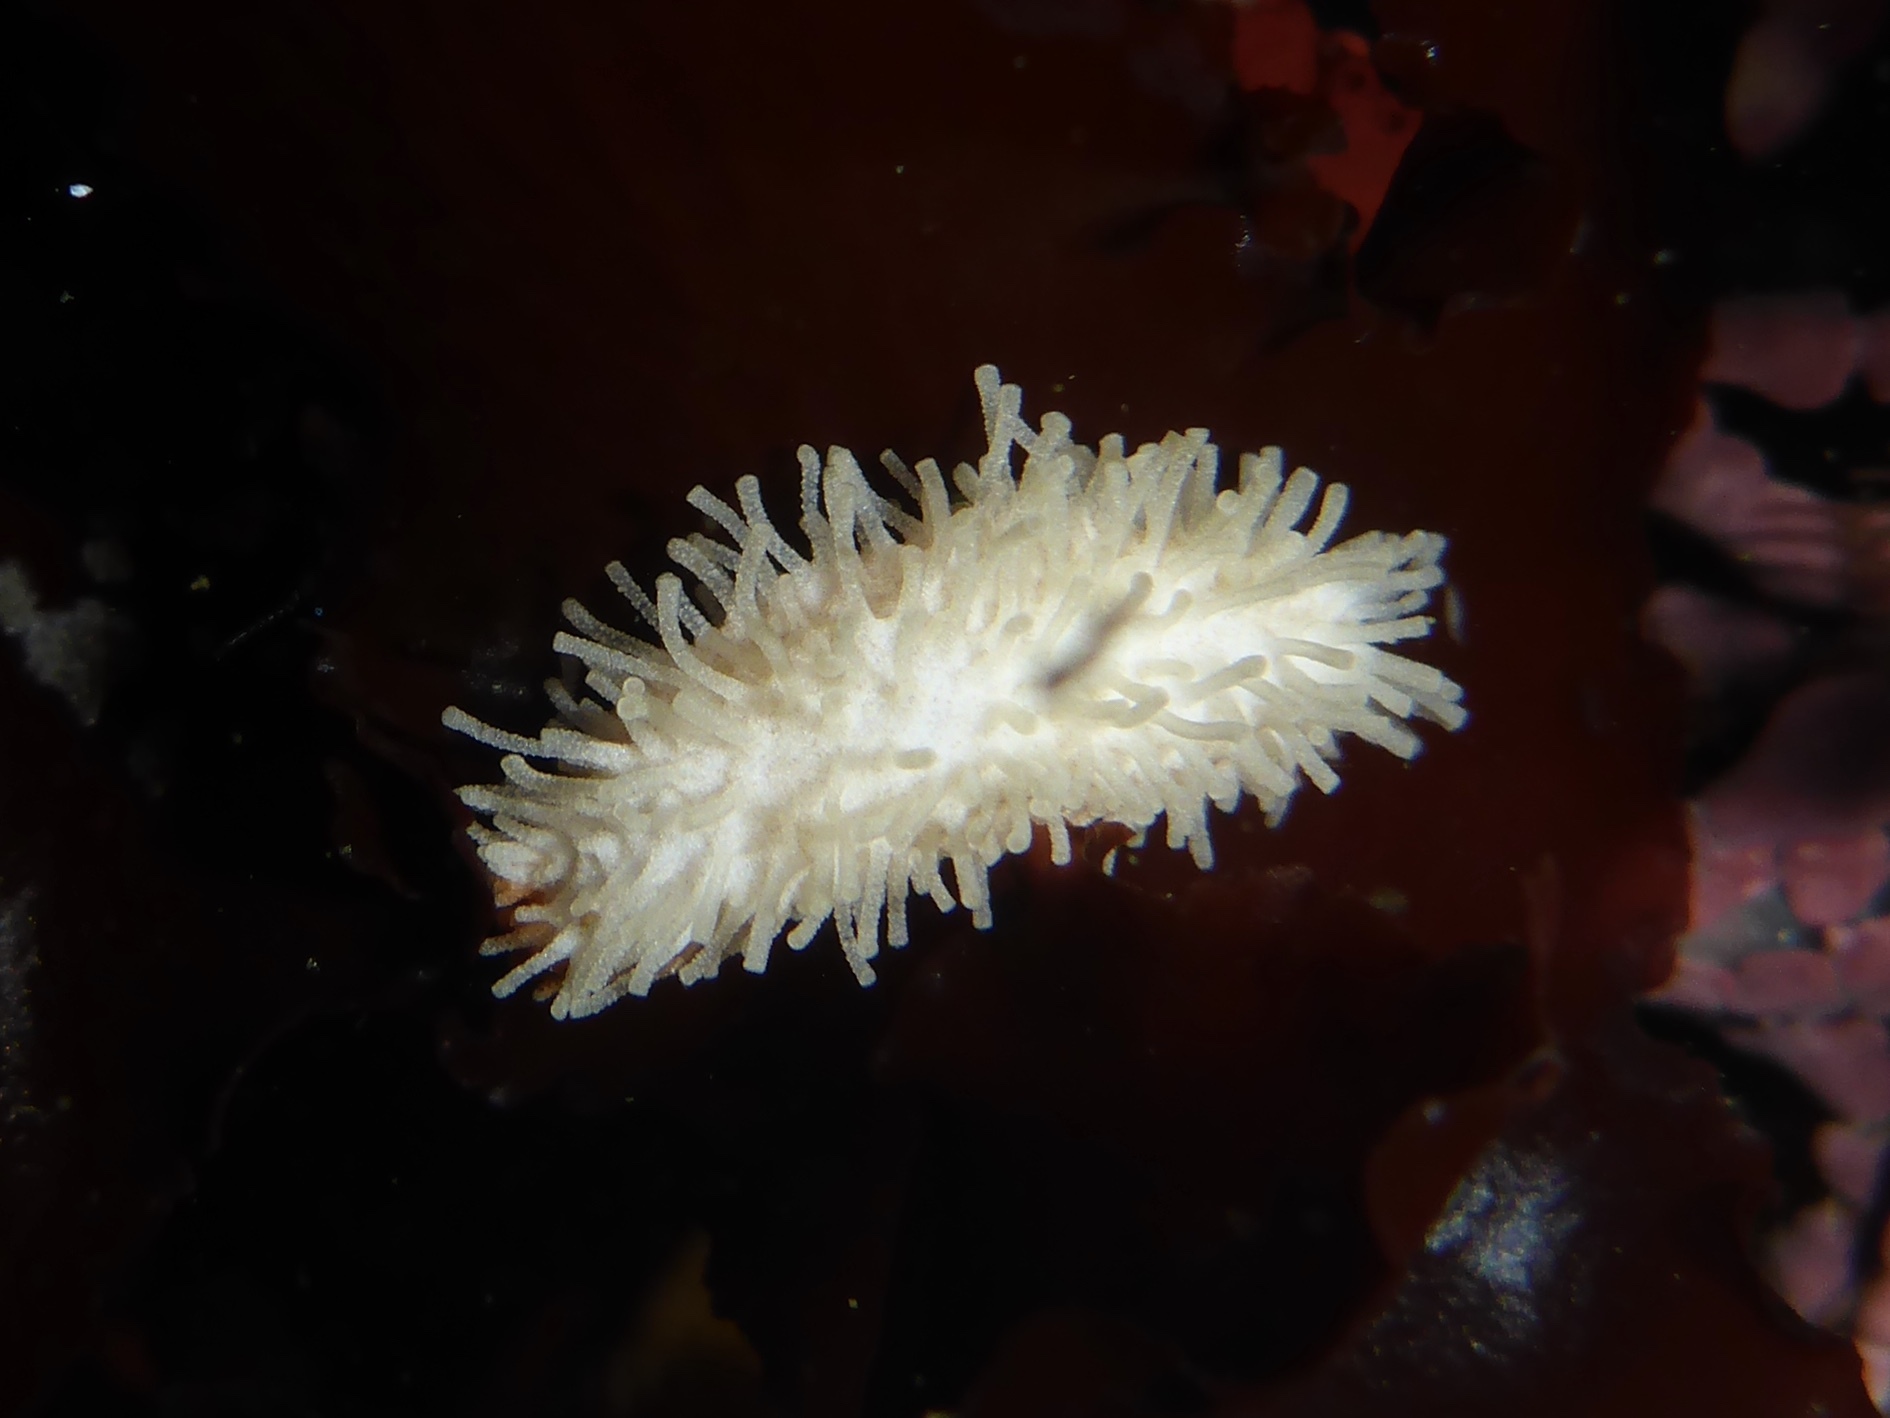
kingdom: Animalia
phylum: Echinodermata
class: Holothuroidea
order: Dendrochirotida
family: Sclerodactylidae
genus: Eupentacta
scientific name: Eupentacta quinquesemita
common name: Pentamerous sea cucumber
